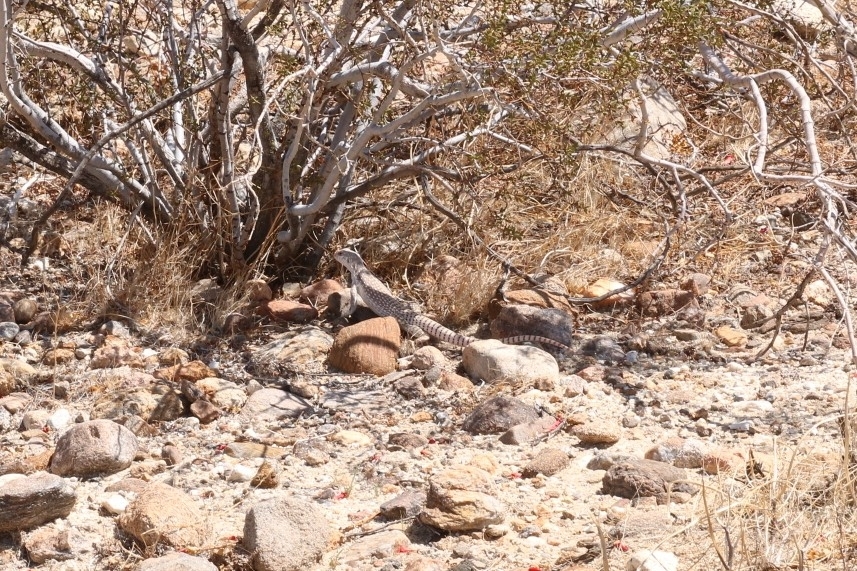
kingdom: Animalia
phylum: Chordata
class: Squamata
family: Iguanidae
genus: Dipsosaurus
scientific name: Dipsosaurus dorsalis
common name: Desert iguana
